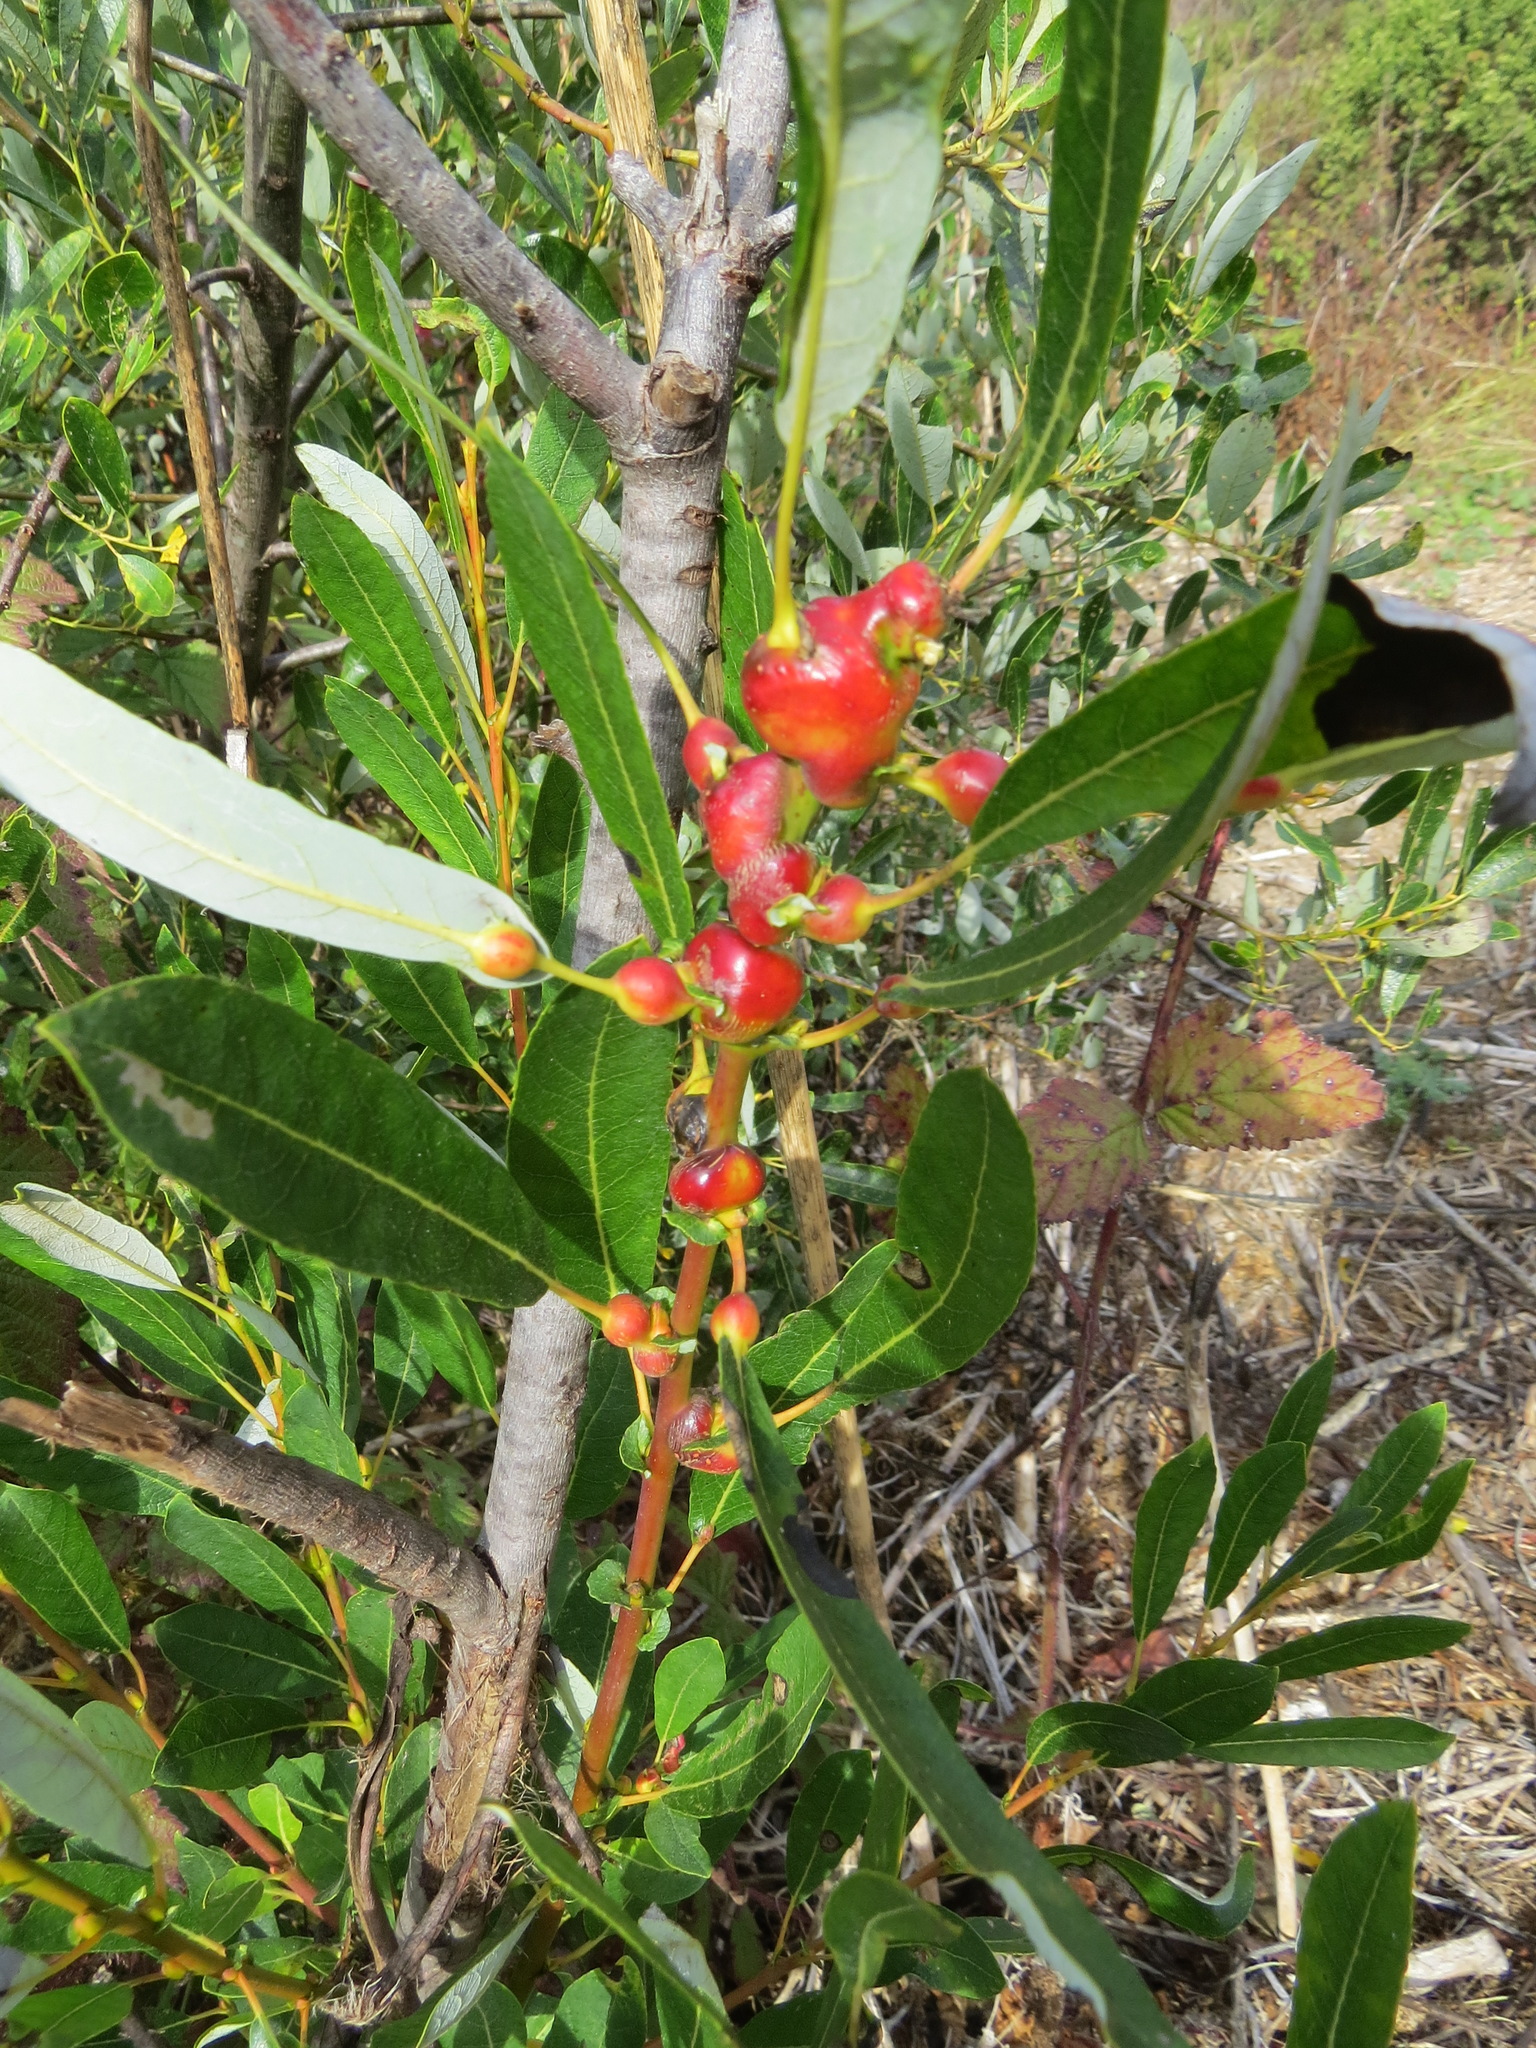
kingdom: Animalia
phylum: Arthropoda
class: Insecta
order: Diptera
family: Cecidomyiidae
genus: Rabdophaga
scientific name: Rabdophaga salicisbatatas
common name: Potato gall midge
